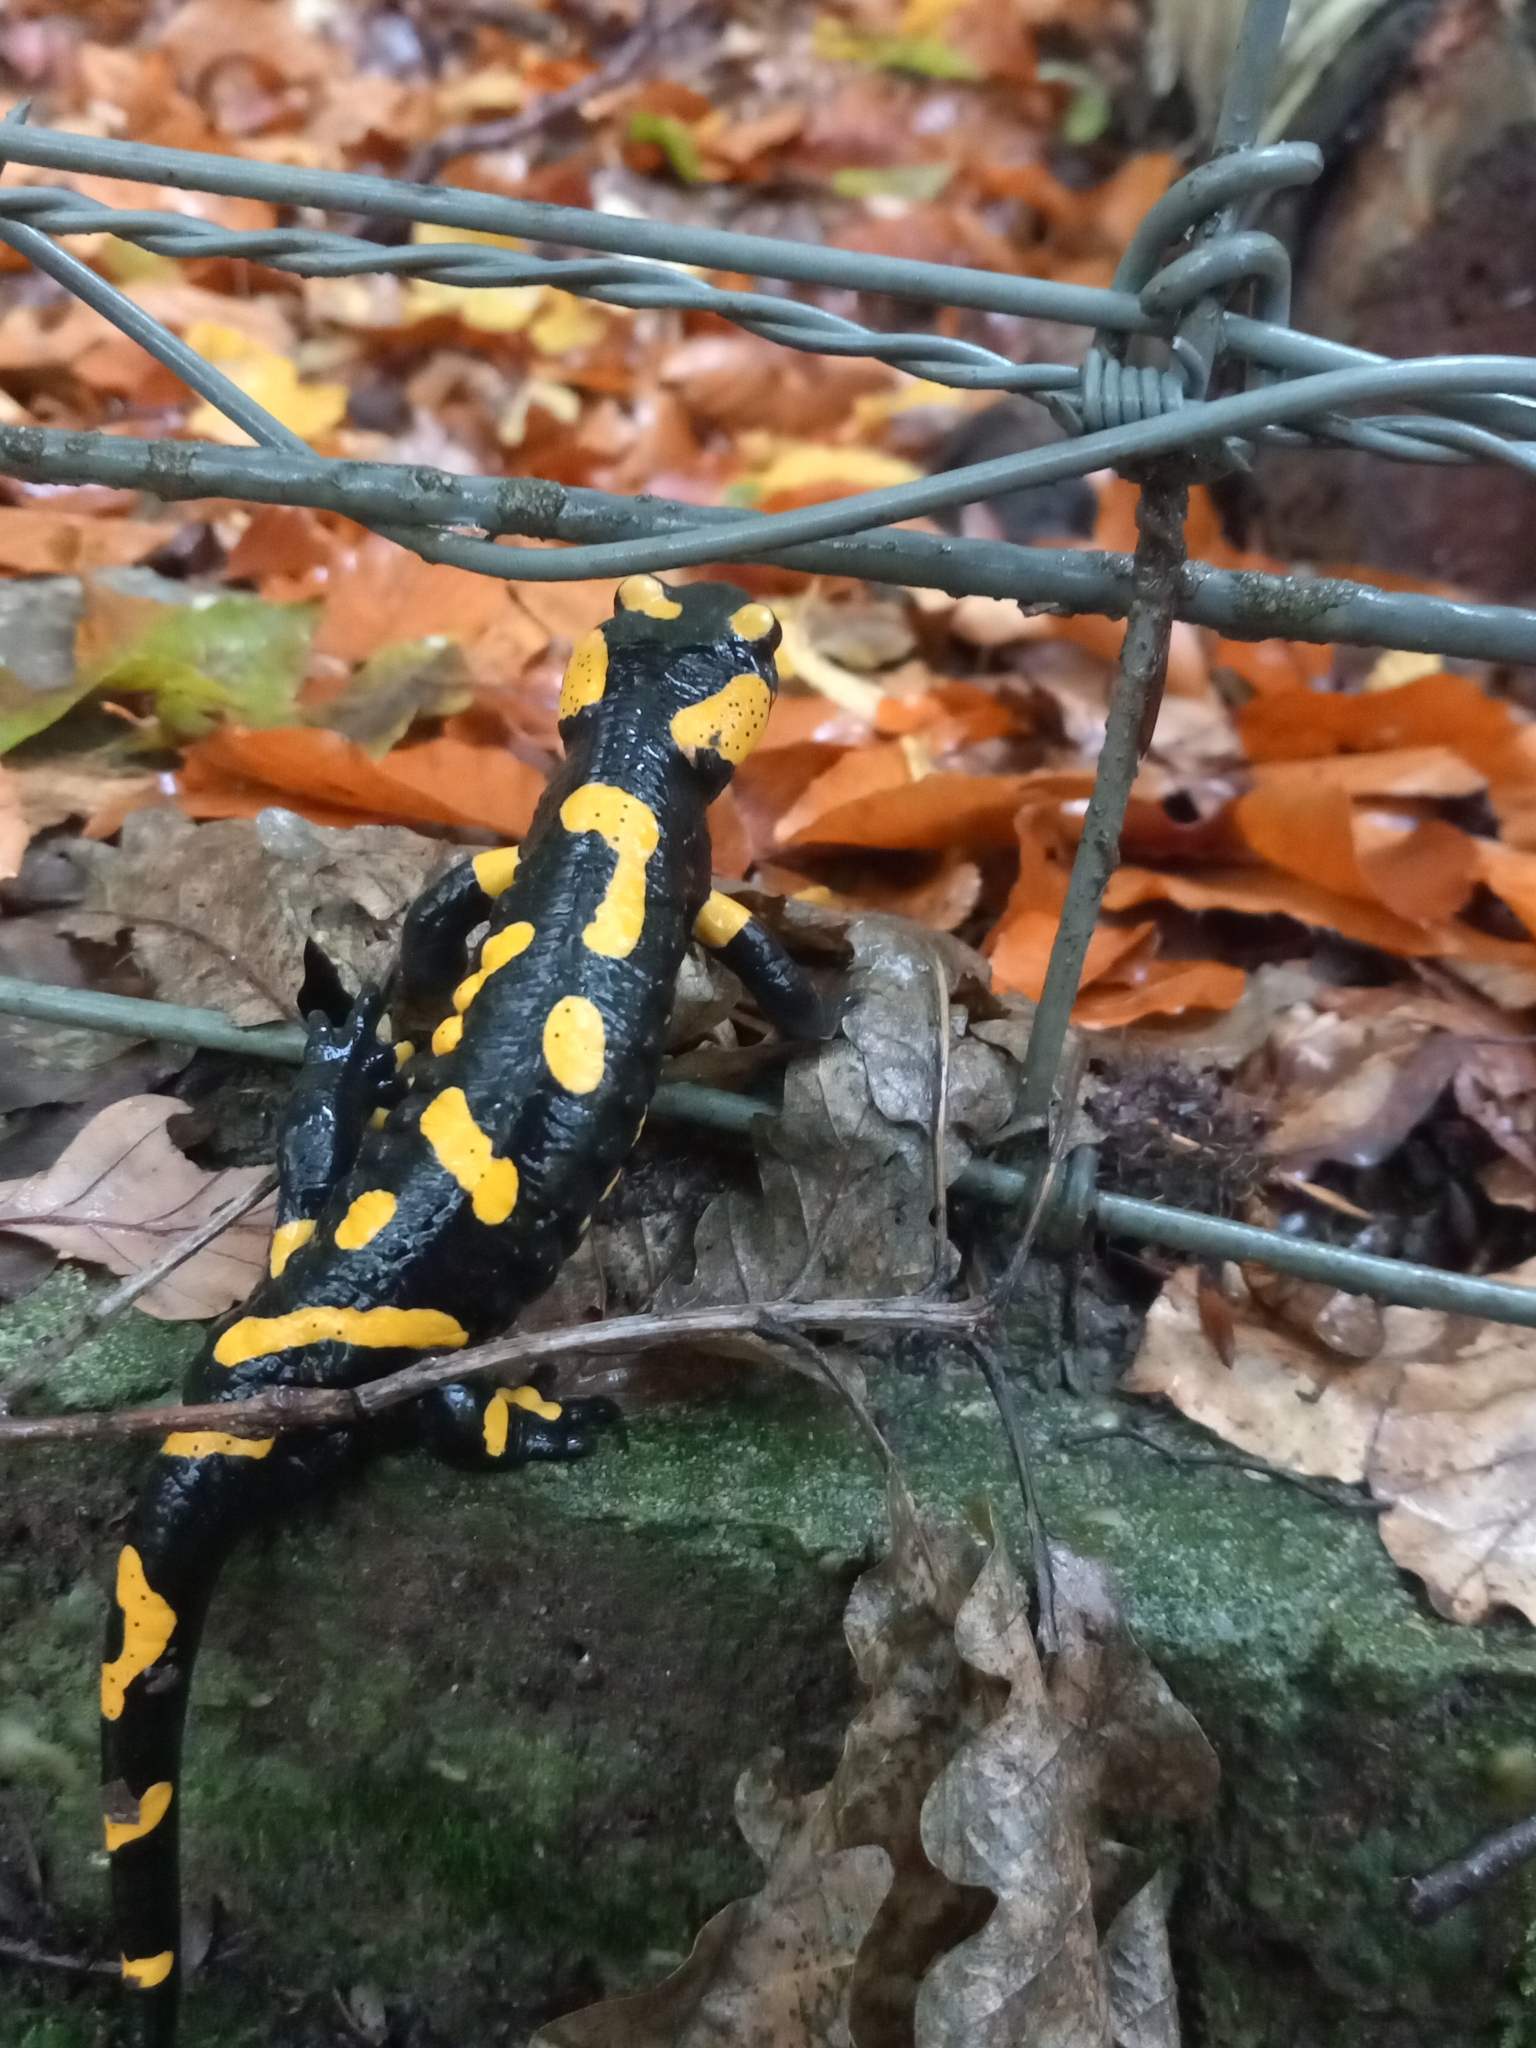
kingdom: Animalia
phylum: Chordata
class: Amphibia
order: Caudata
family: Salamandridae
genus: Salamandra
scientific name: Salamandra salamandra
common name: Fire salamander
